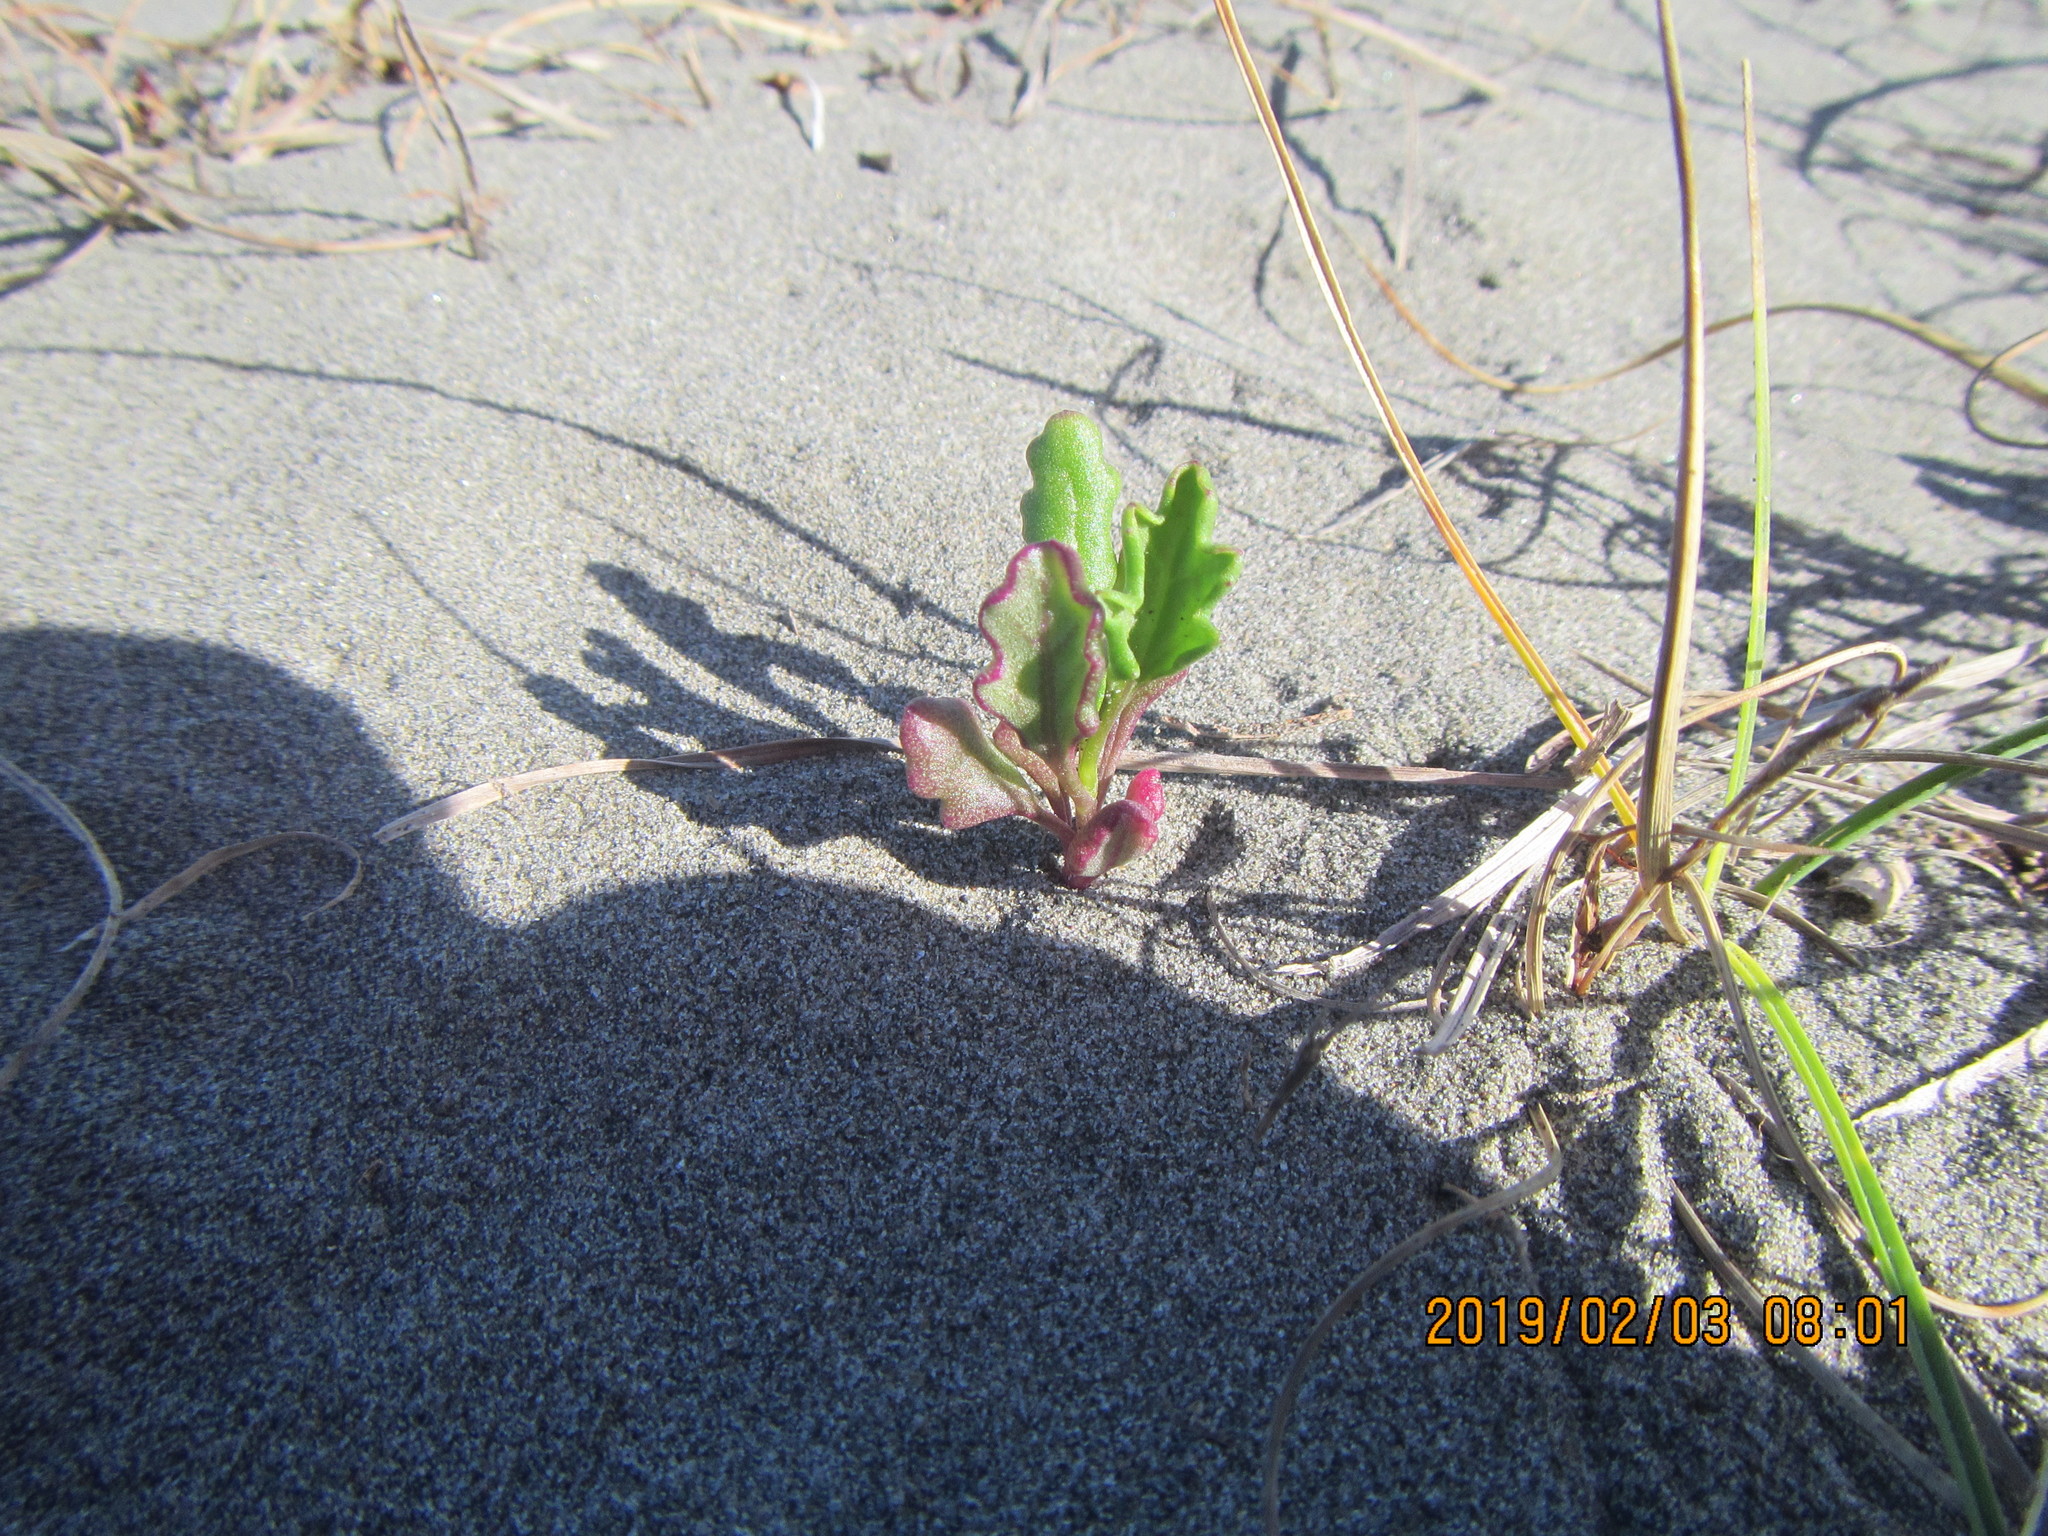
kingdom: Plantae
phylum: Tracheophyta
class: Magnoliopsida
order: Asterales
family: Asteraceae
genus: Senecio
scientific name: Senecio elegans
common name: Purple groundsel
